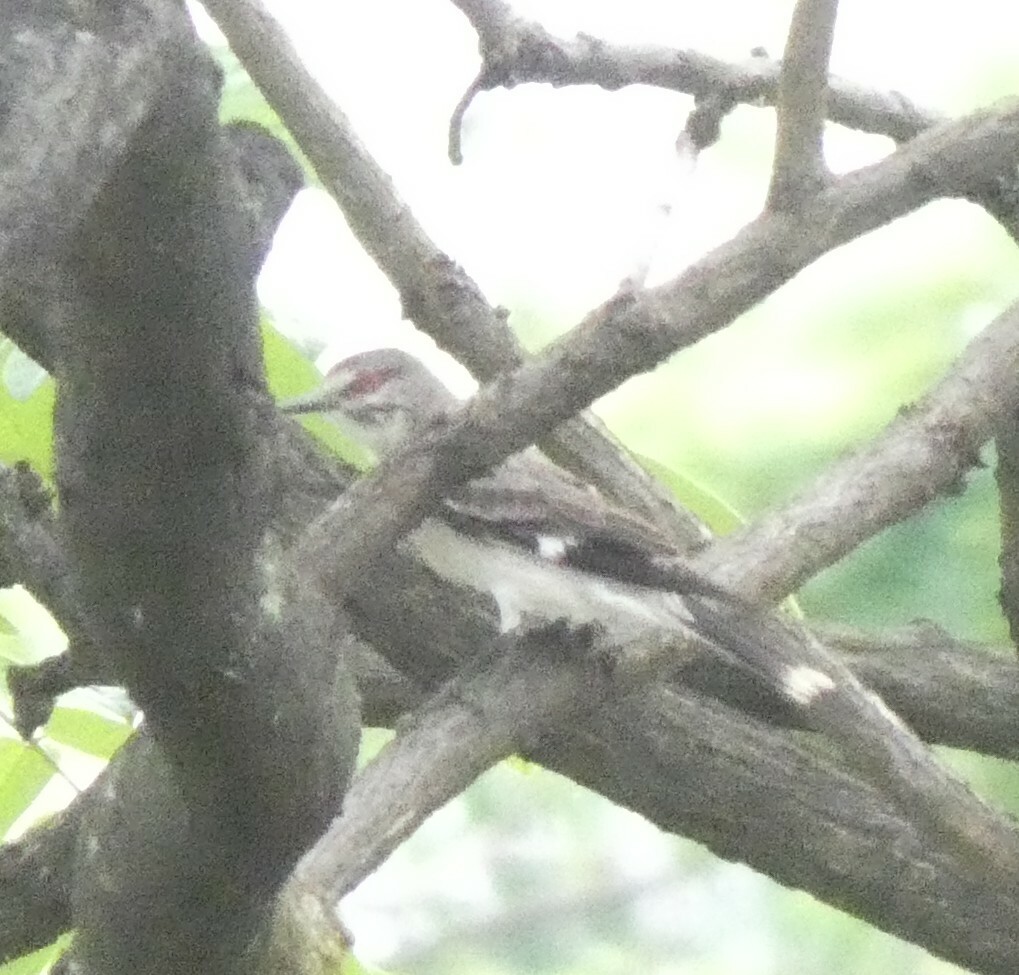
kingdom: Animalia
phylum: Chordata
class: Aves
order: Passeriformes
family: Tyrannidae
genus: Xolmis
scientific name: Xolmis cinereus
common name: Grey monjita
